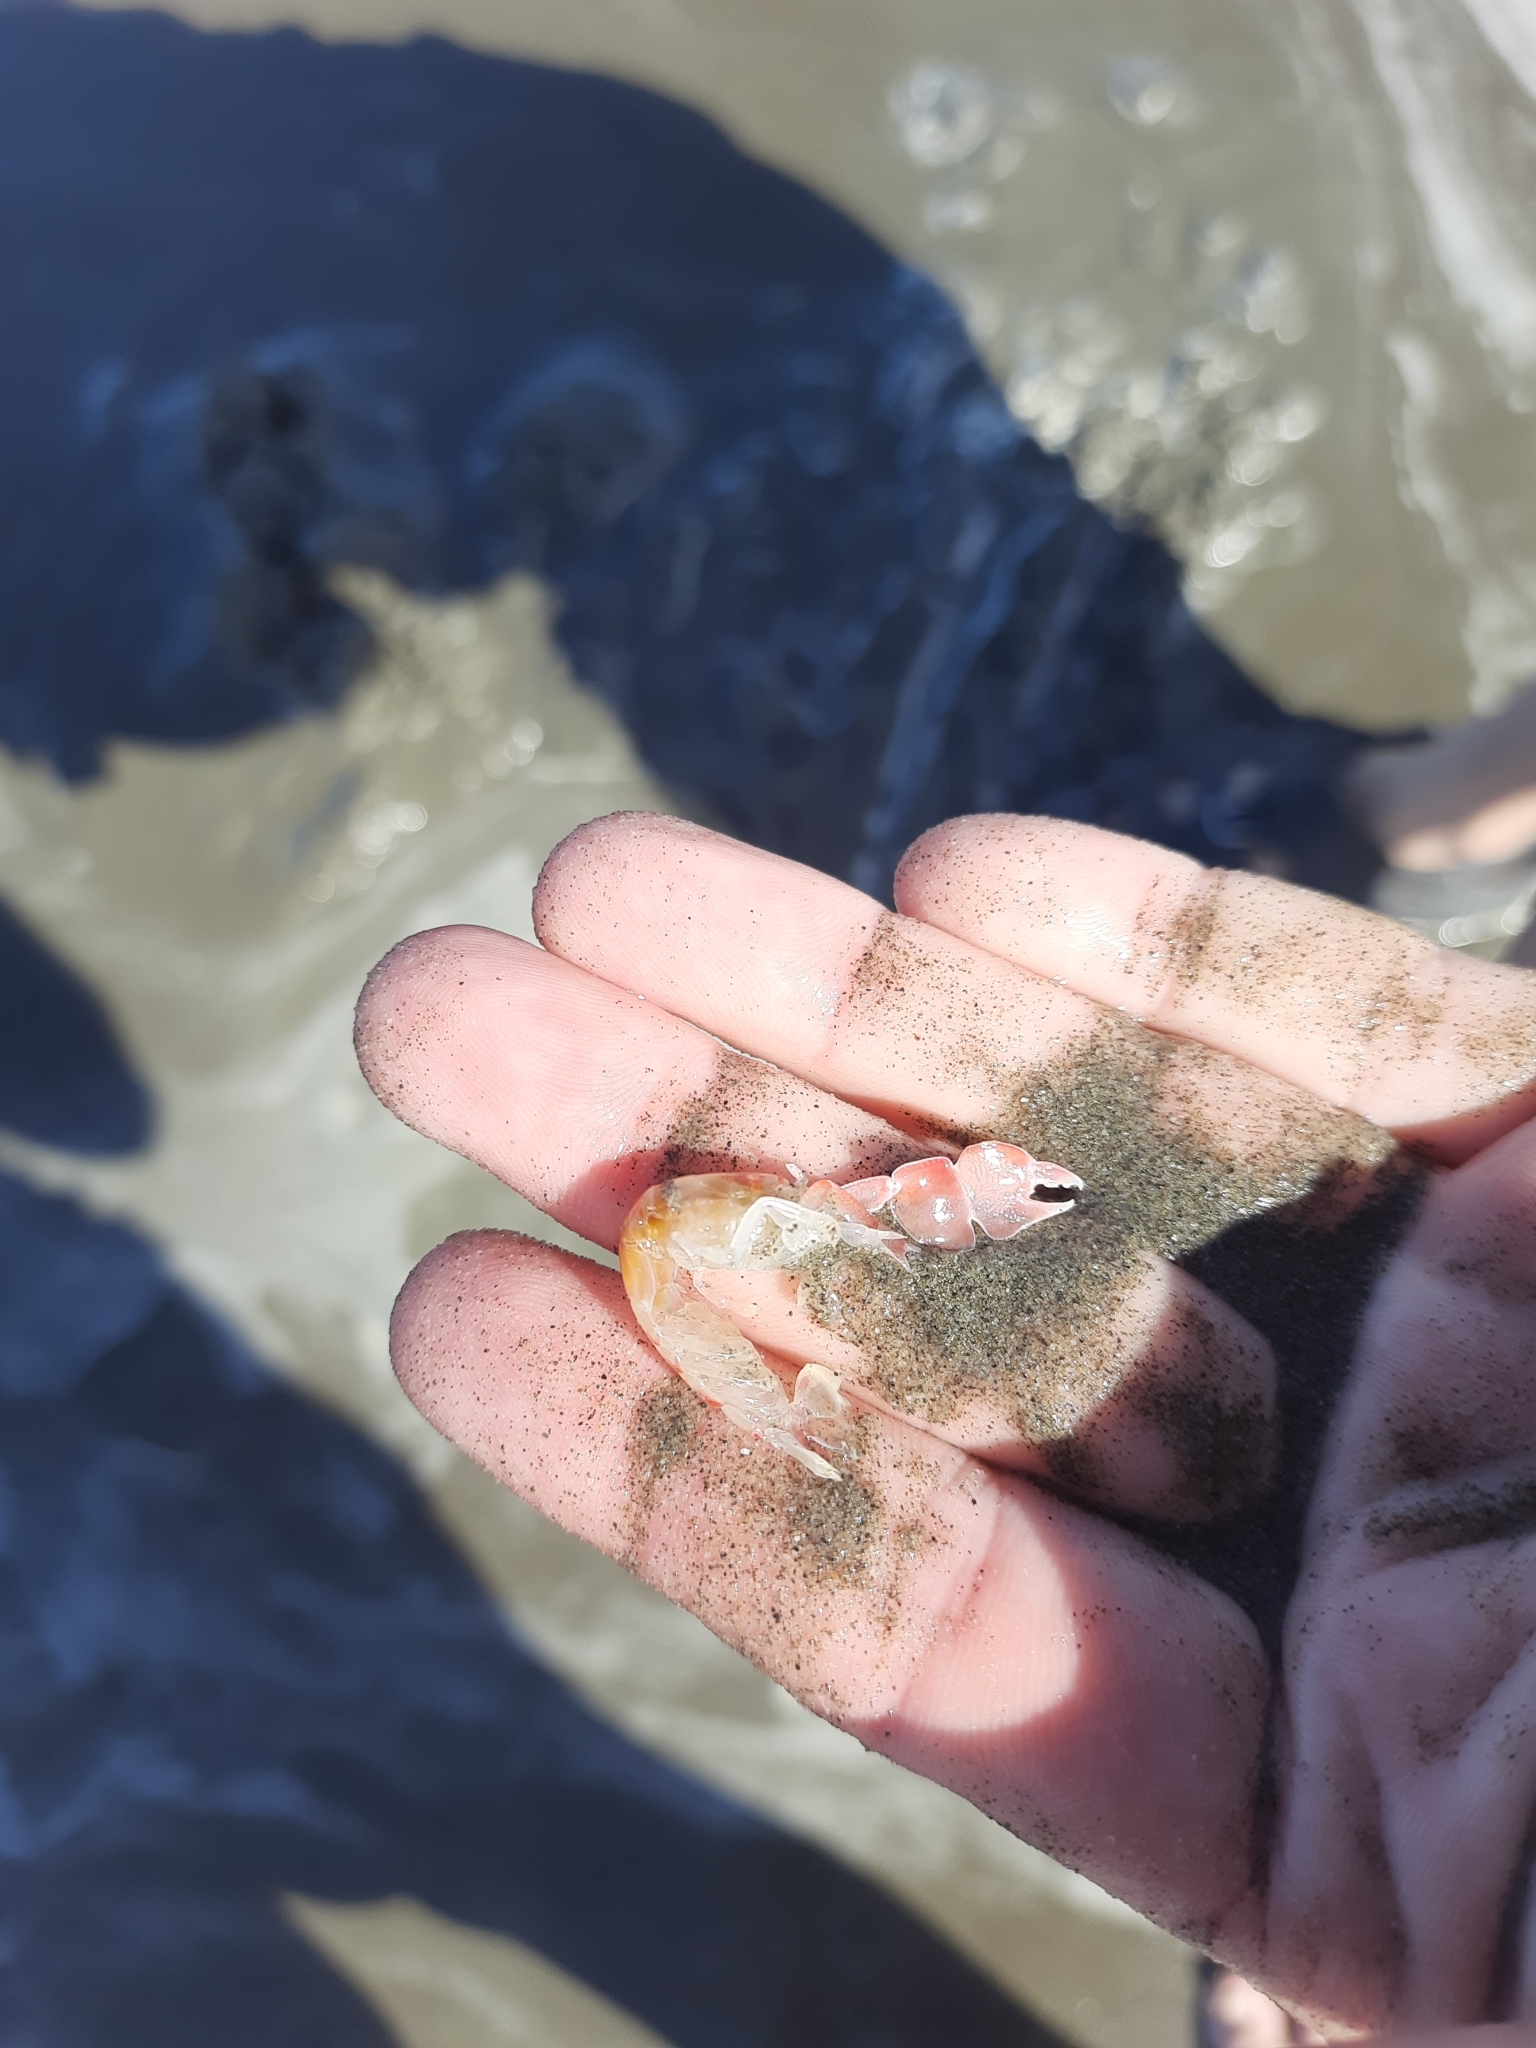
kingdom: Animalia
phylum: Arthropoda
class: Malacostraca
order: Decapoda
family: Callianassidae
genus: Filhollianassa
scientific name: Filhollianassa filholi
